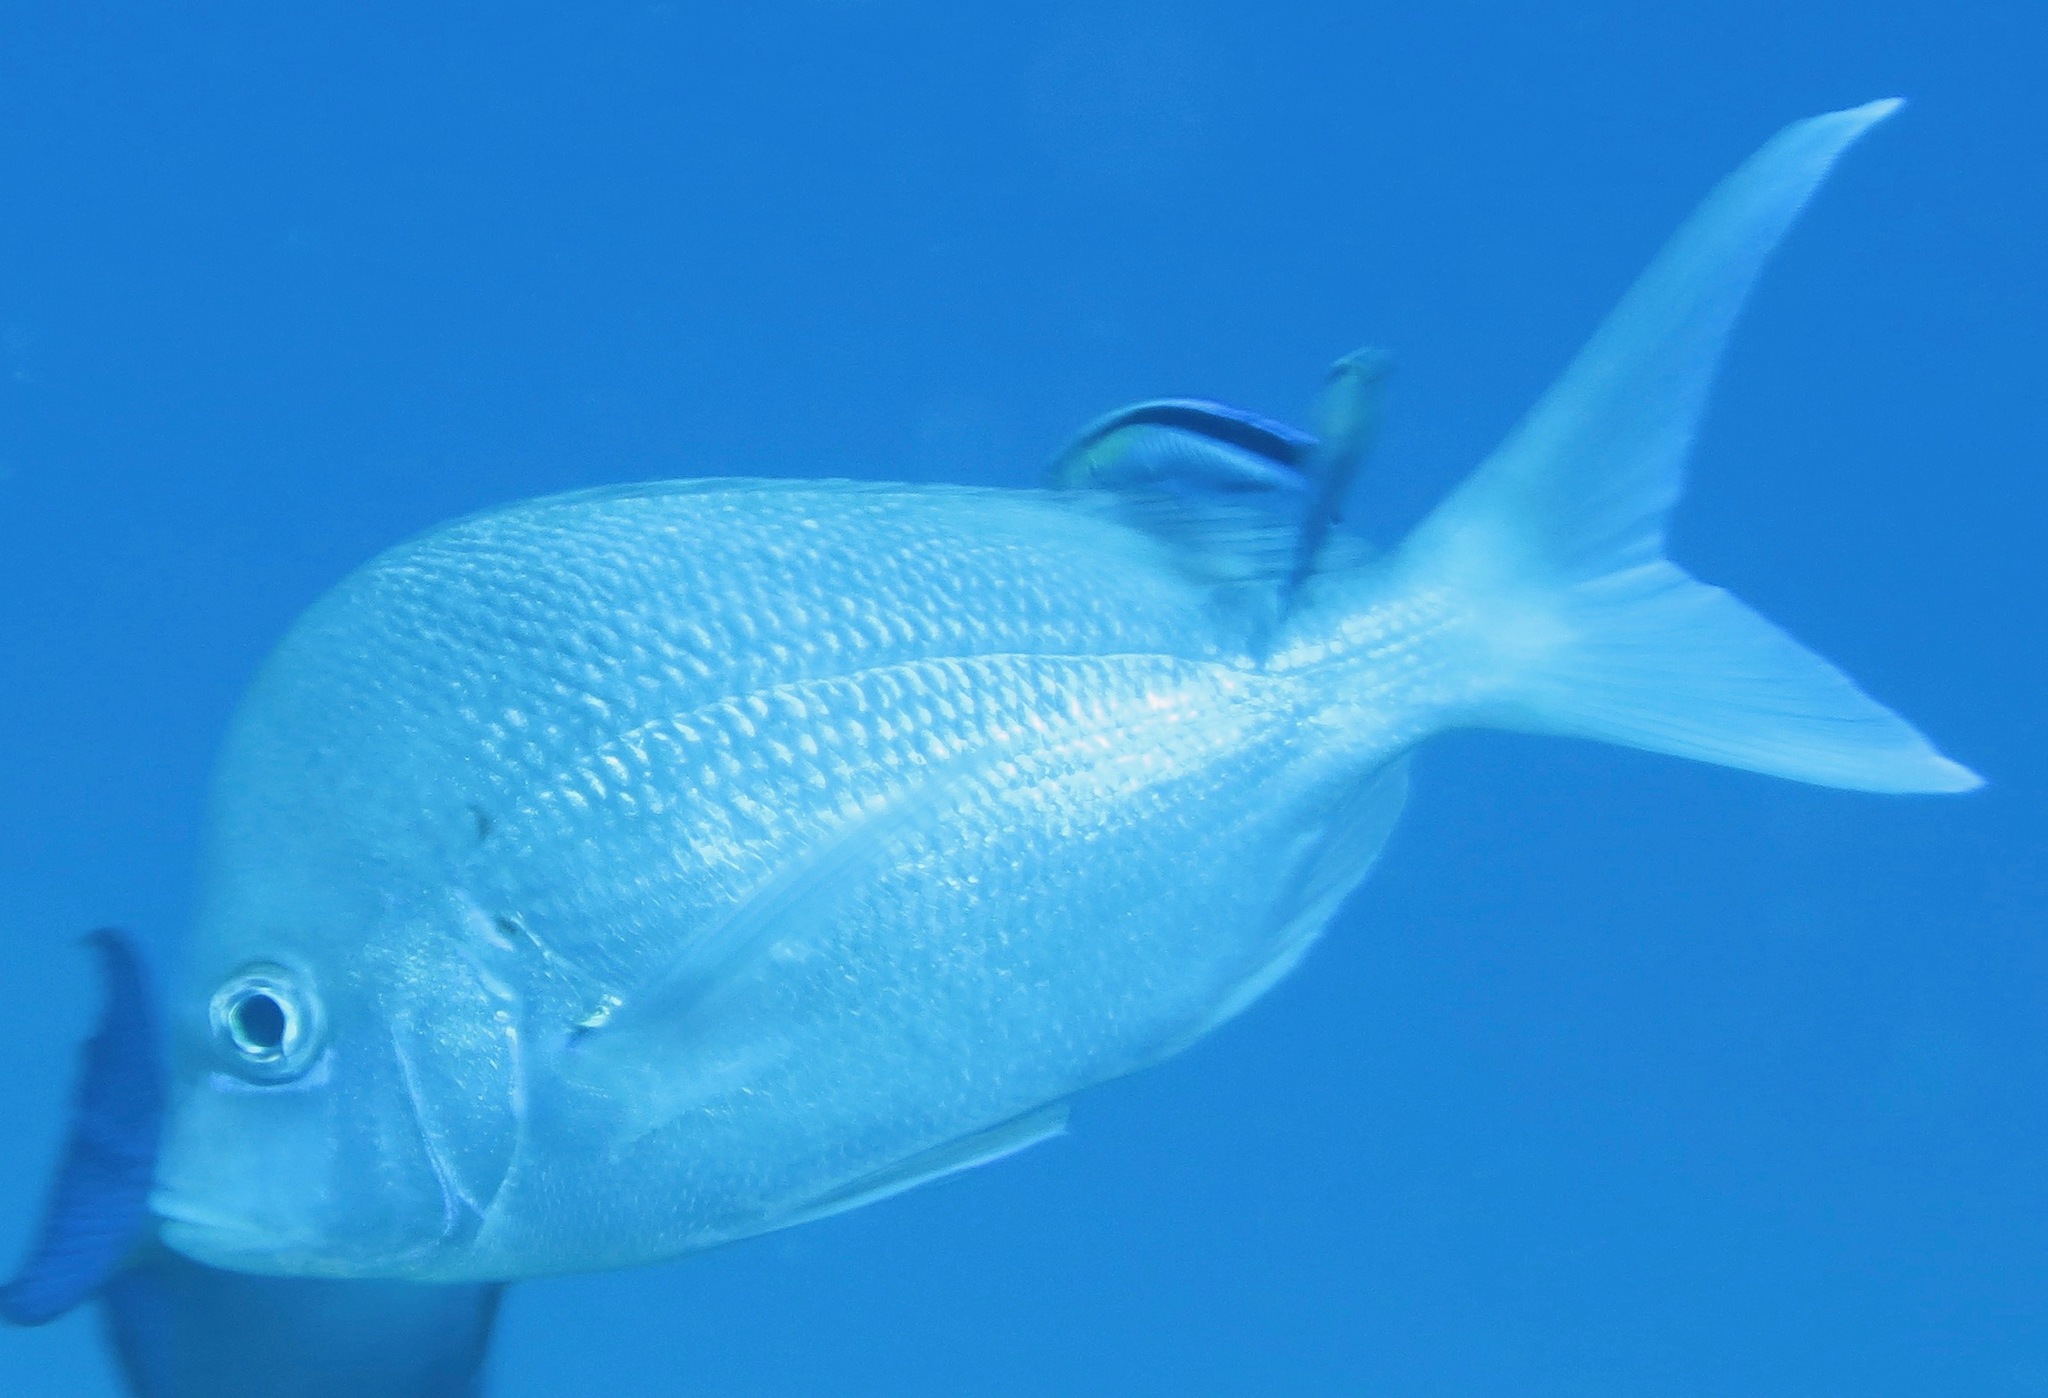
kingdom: Animalia
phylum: Chordata
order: Perciformes
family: Sparidae
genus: Chrysoblephus
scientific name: Chrysoblephus puniceus
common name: Slinger seabream
